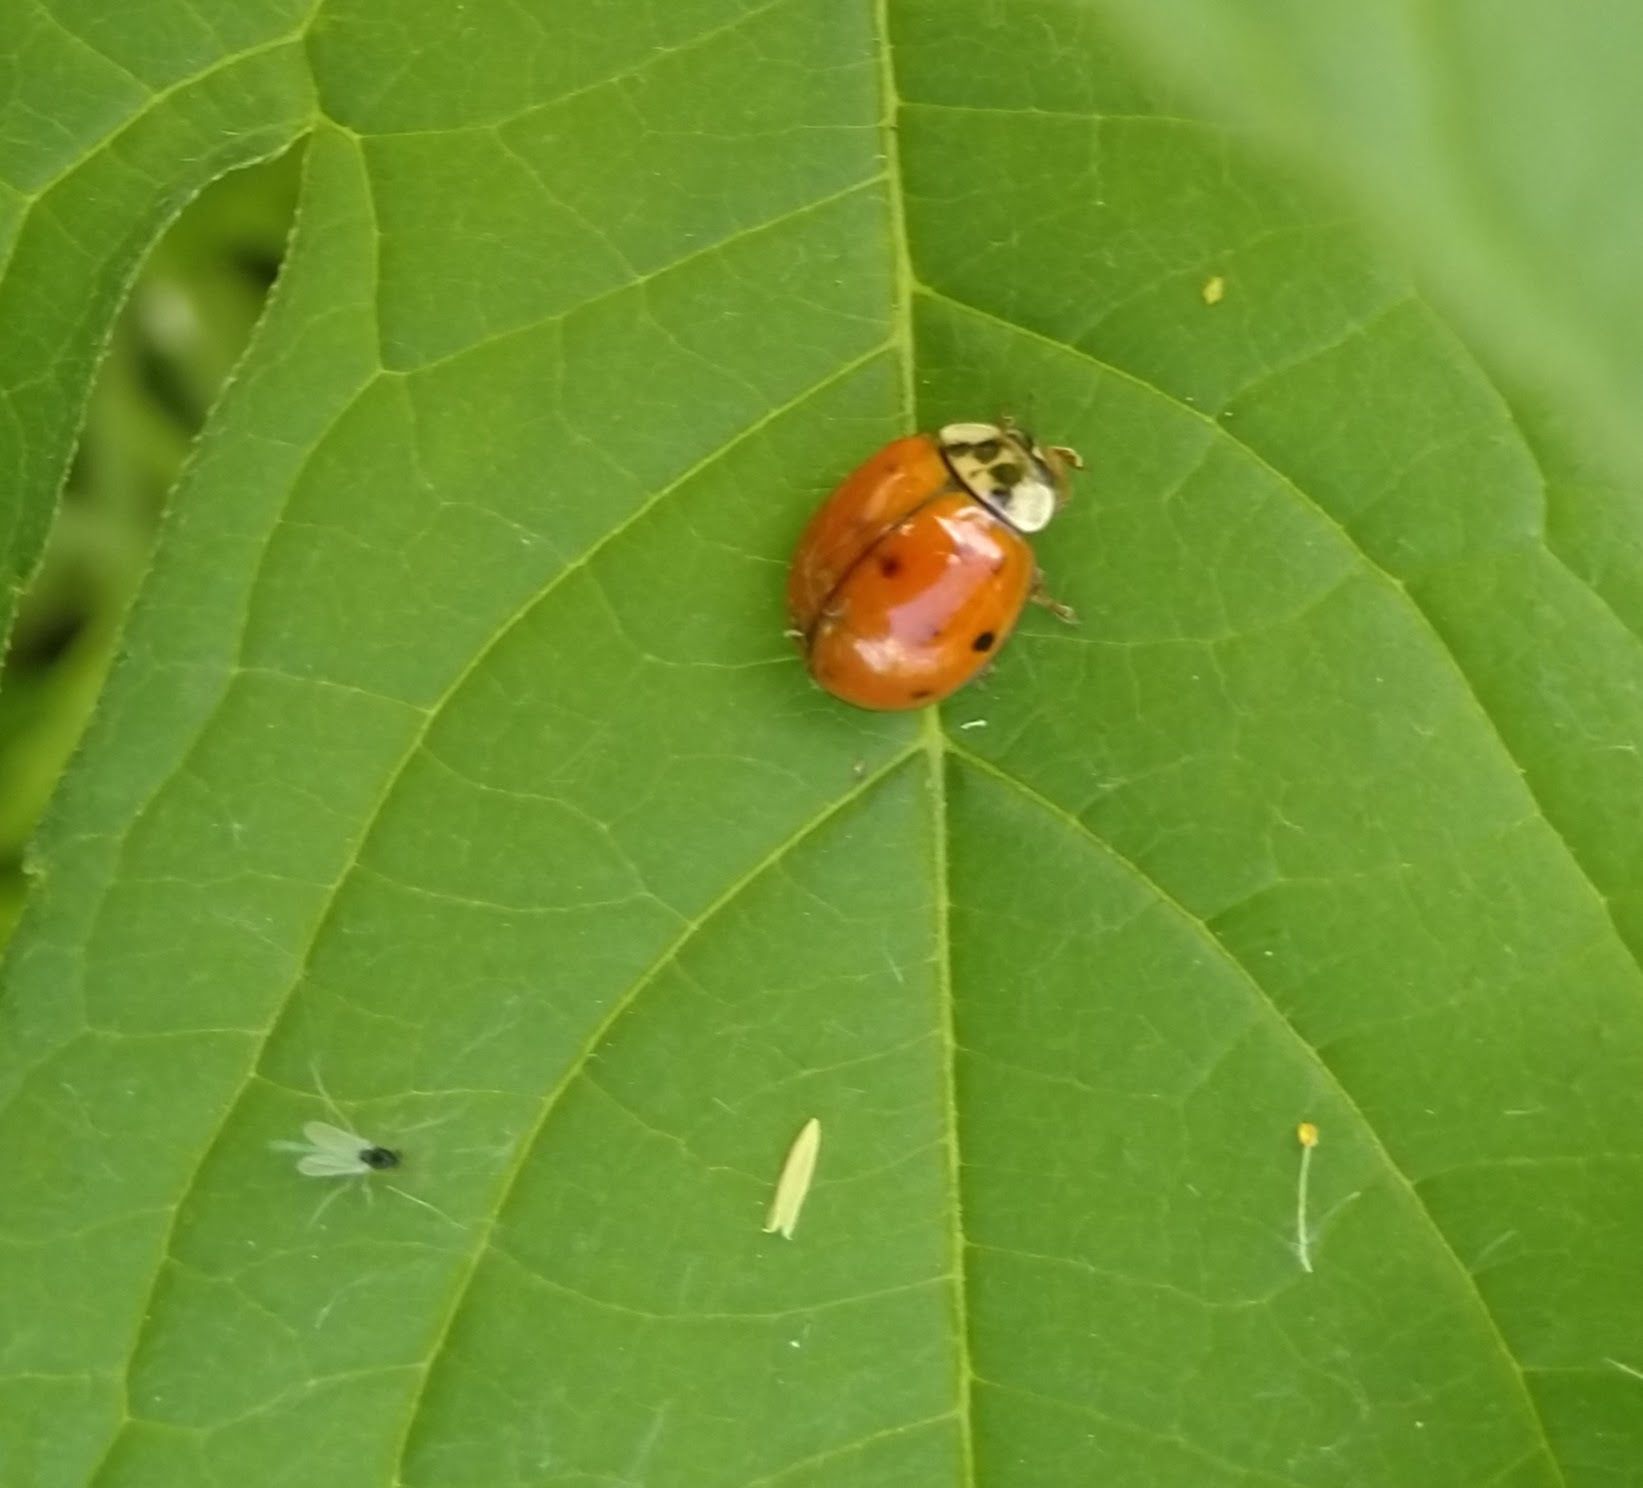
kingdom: Animalia
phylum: Arthropoda
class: Insecta
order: Coleoptera
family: Coccinellidae
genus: Harmonia
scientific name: Harmonia axyridis
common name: Harlequin ladybird
